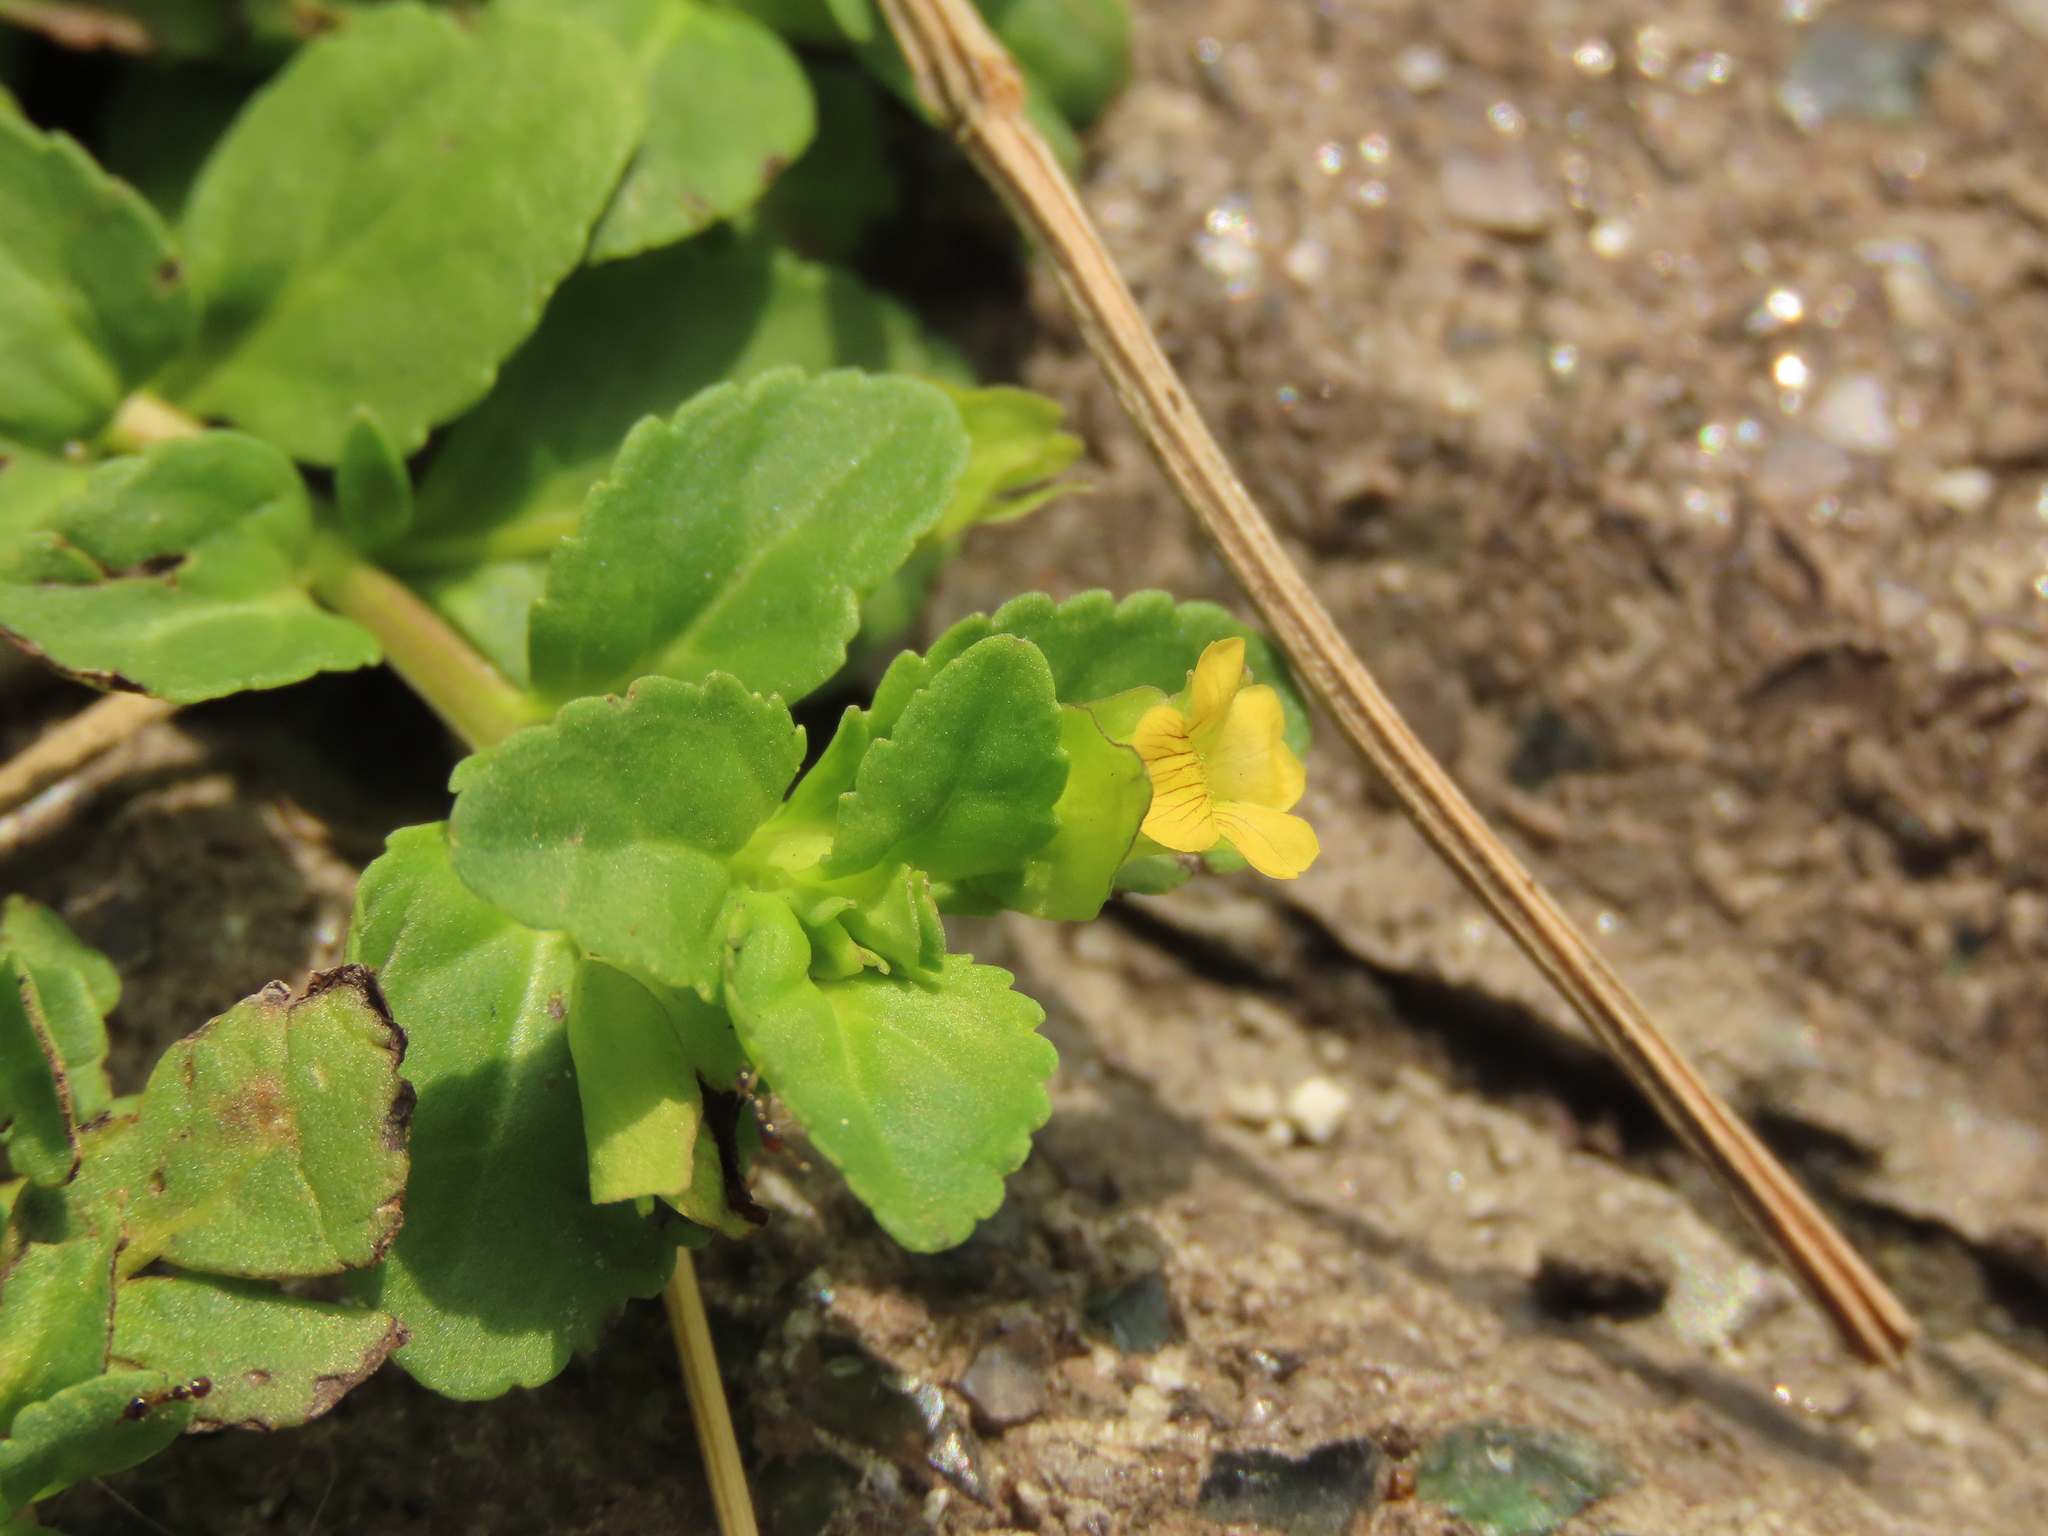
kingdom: Plantae
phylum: Tracheophyta
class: Magnoliopsida
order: Lamiales
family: Plantaginaceae
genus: Mecardonia
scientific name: Mecardonia procumbens
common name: Baby jump-up
